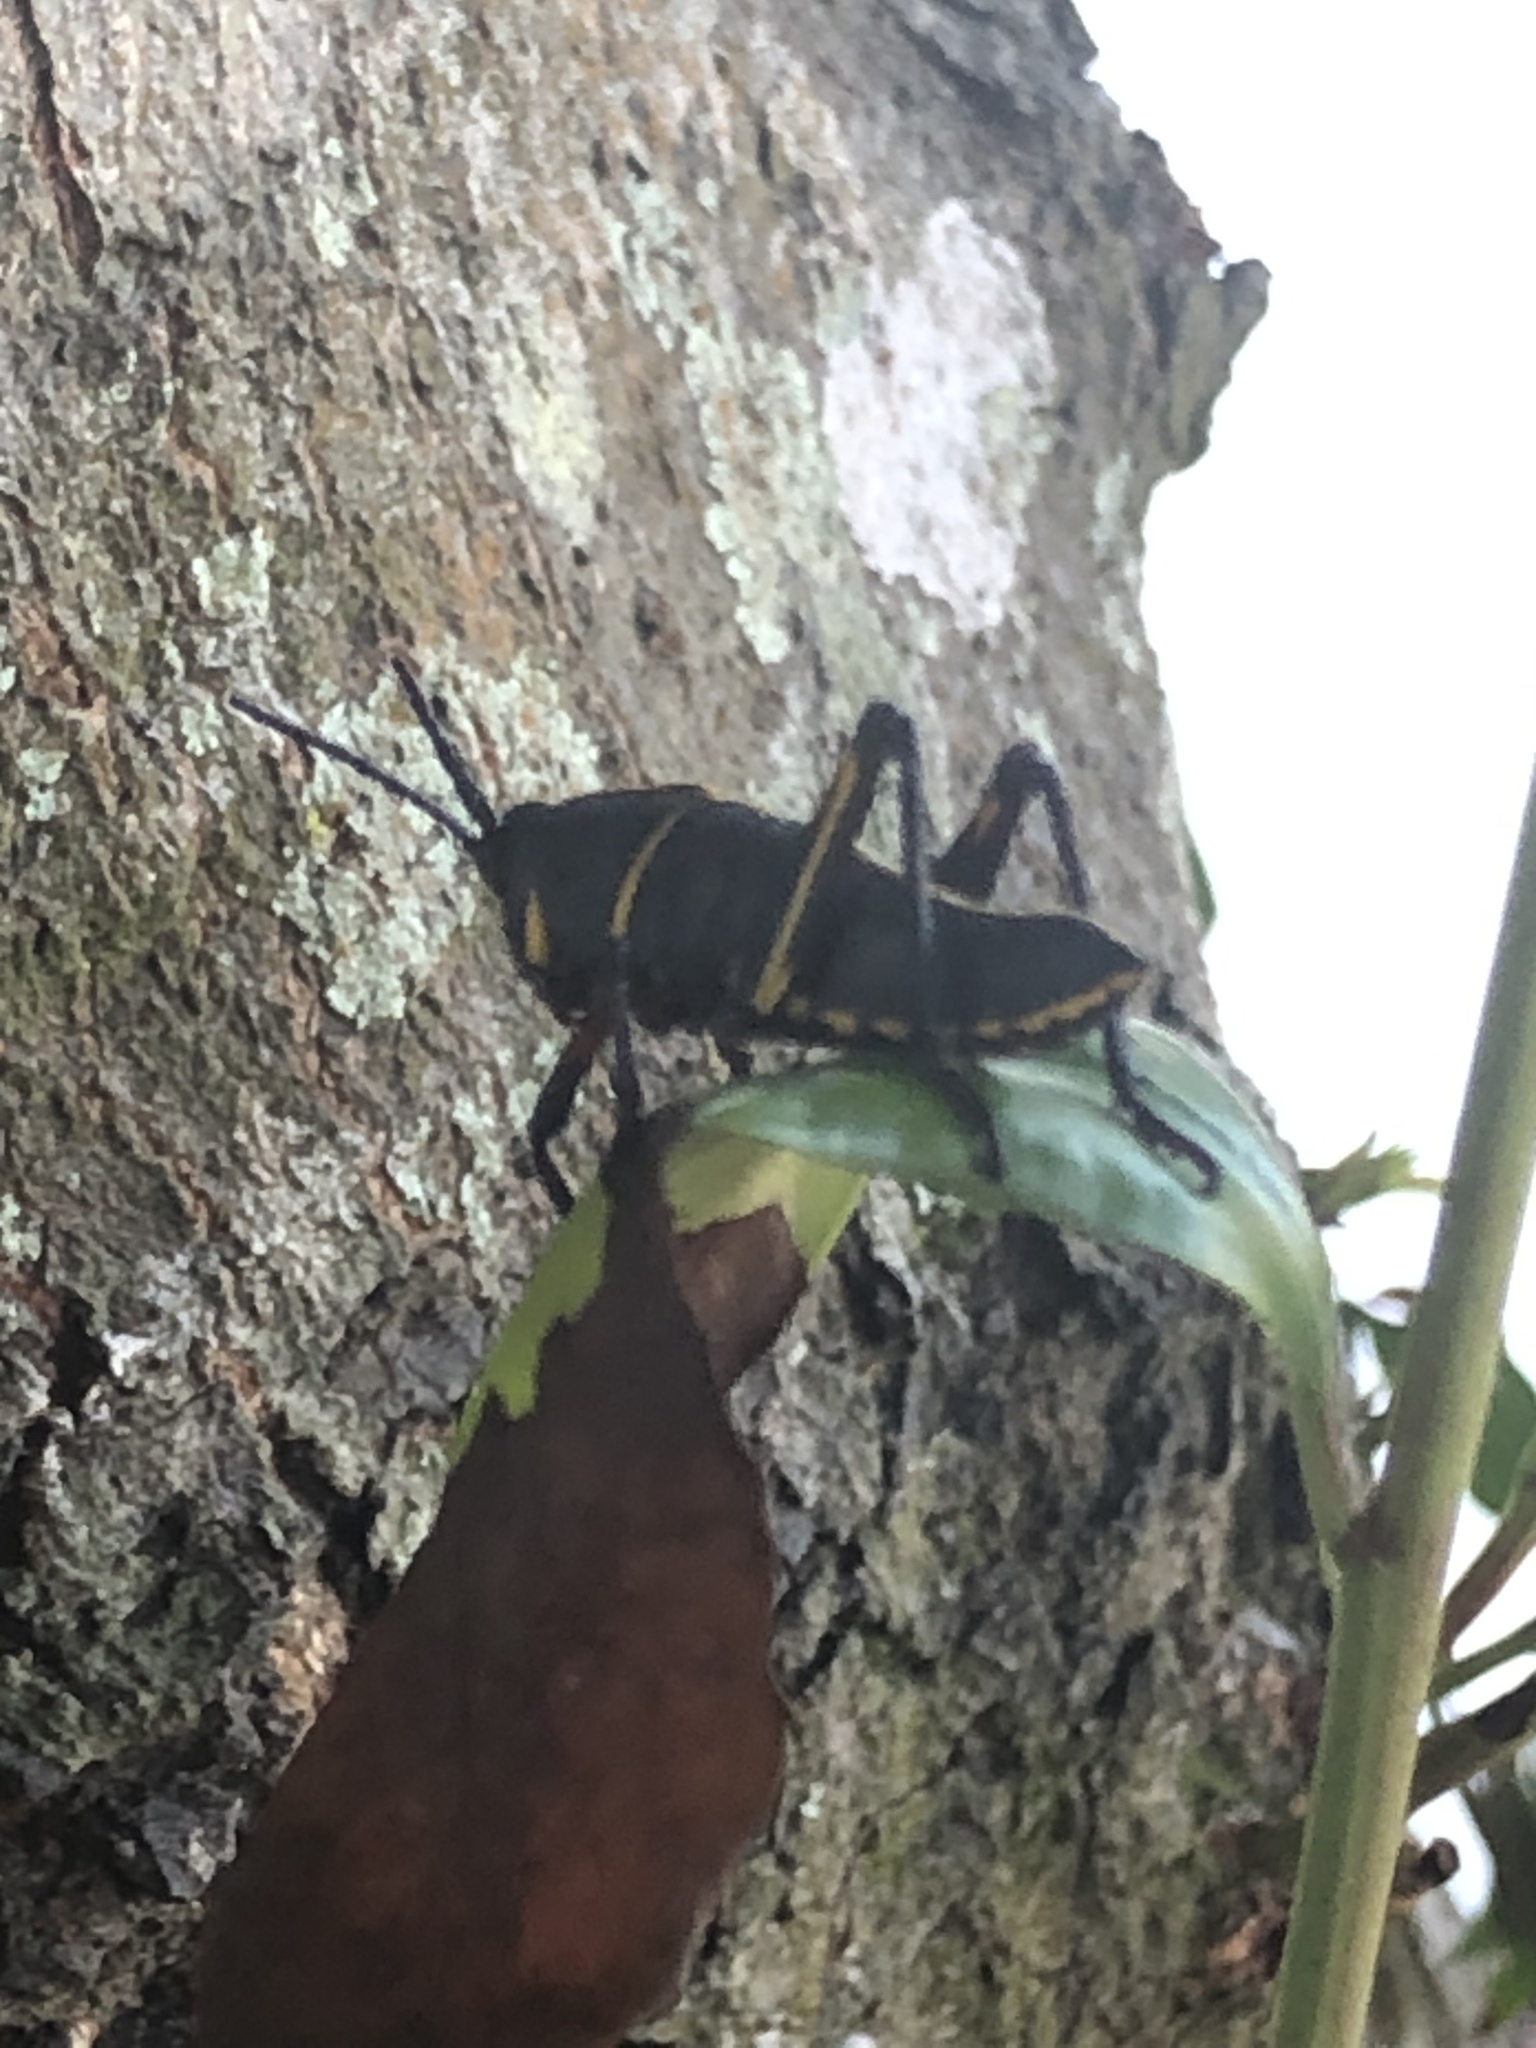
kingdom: Animalia
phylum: Arthropoda
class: Insecta
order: Orthoptera
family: Romaleidae
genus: Romalea
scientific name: Romalea microptera
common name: Eastern lubber grasshopper
